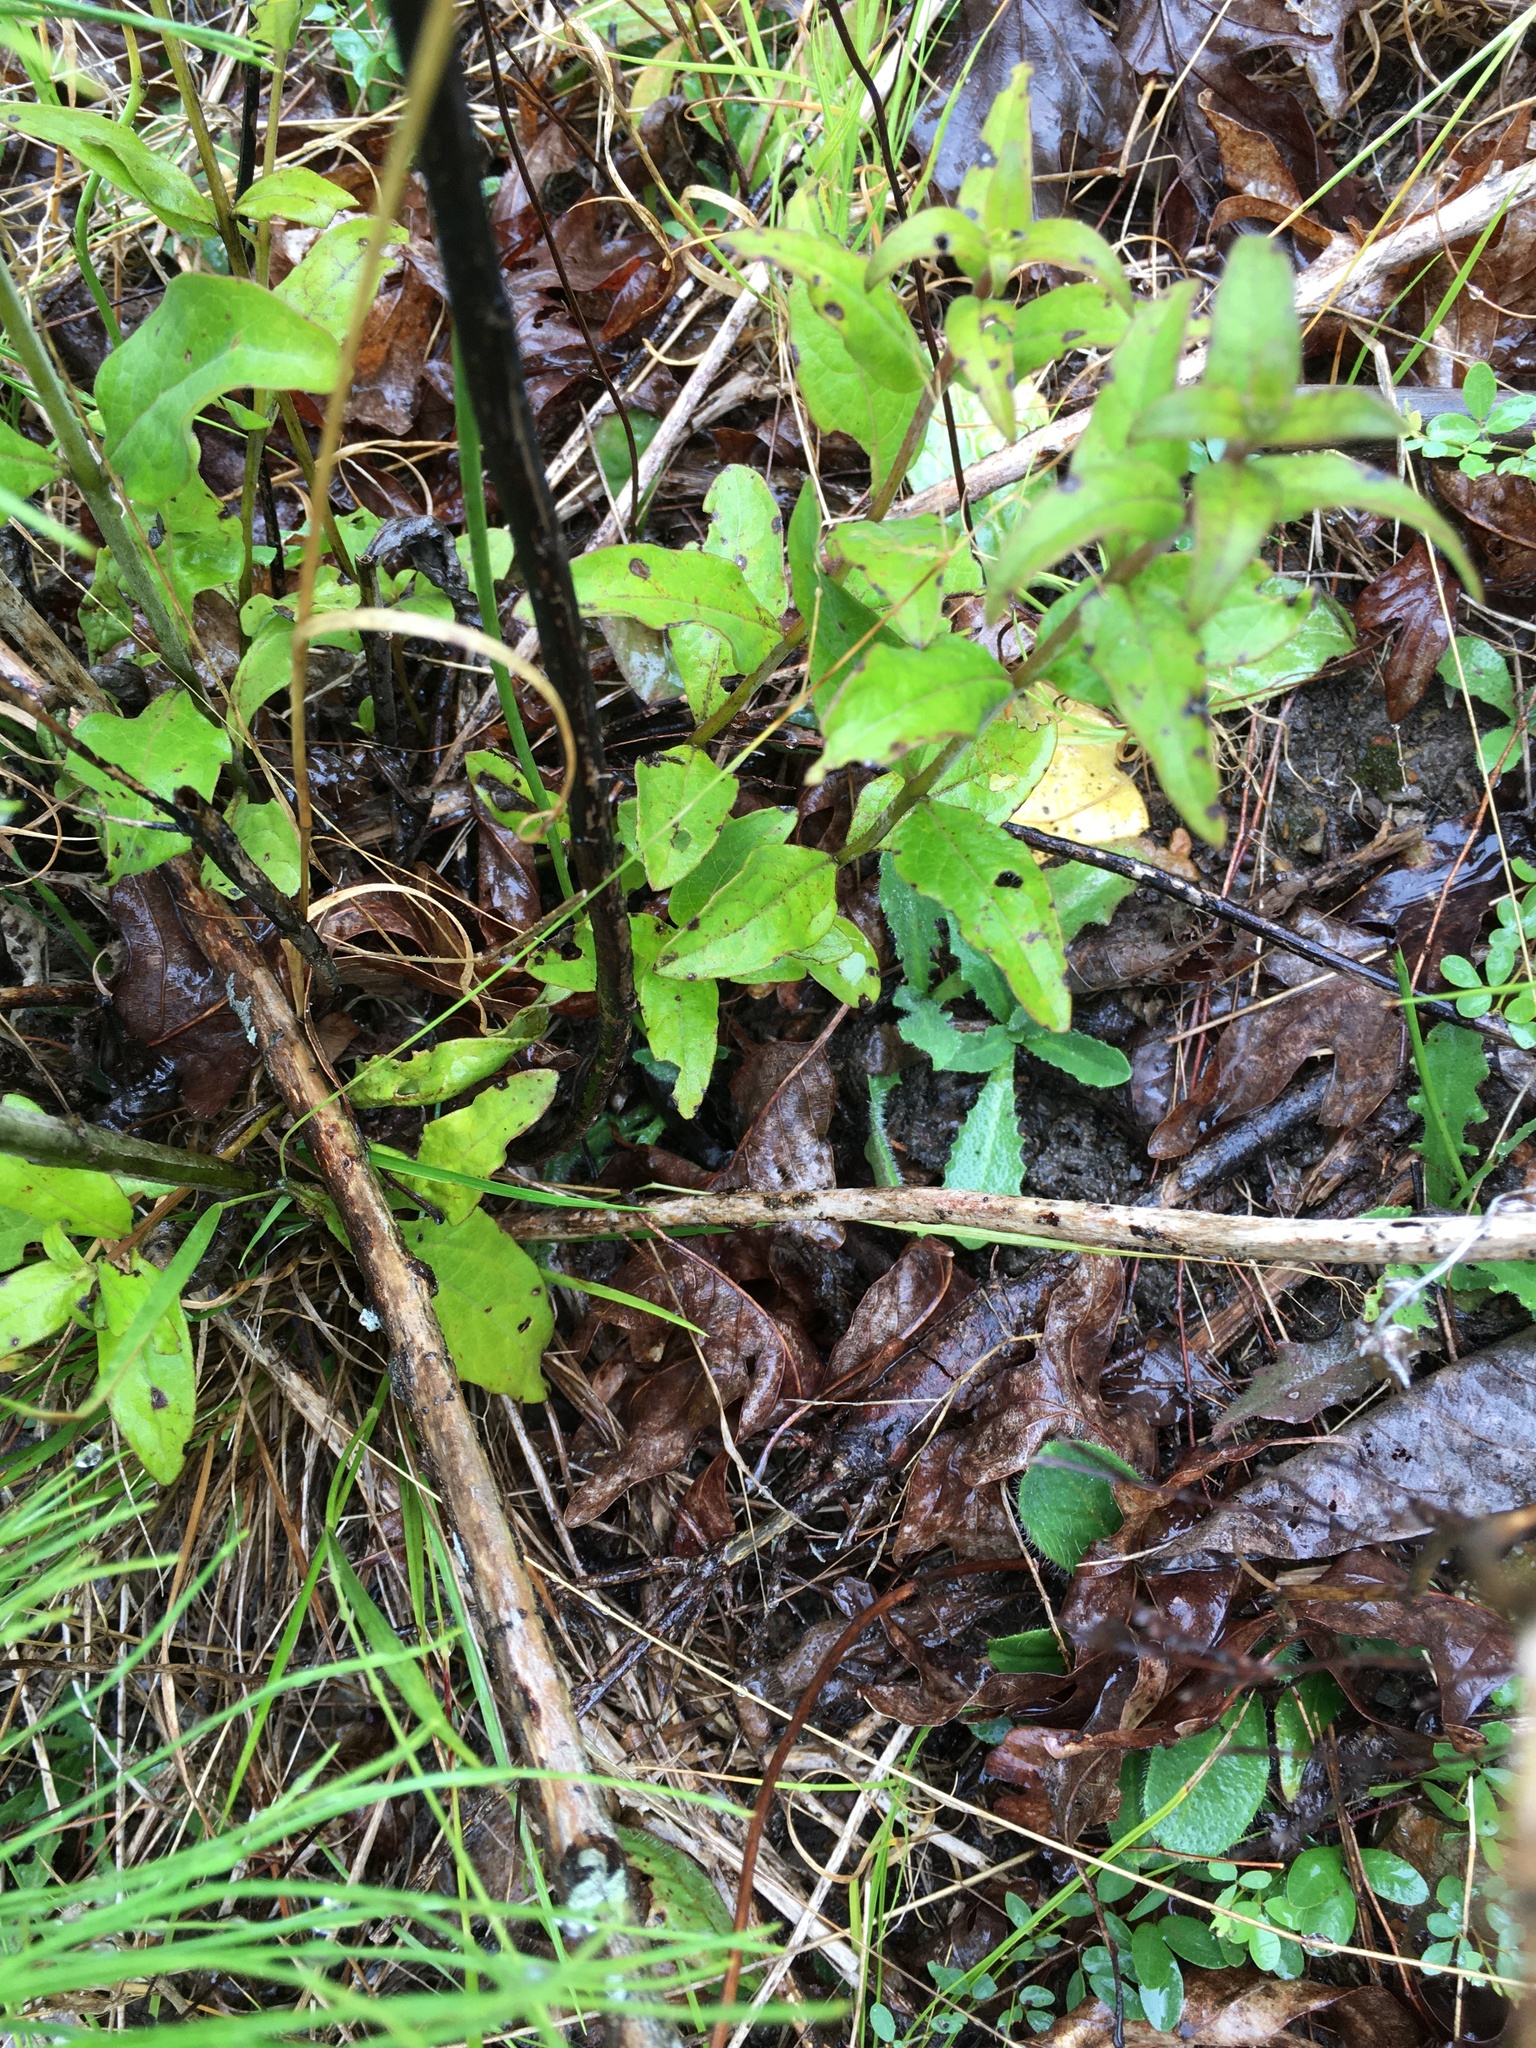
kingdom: Plantae
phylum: Tracheophyta
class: Magnoliopsida
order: Lamiales
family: Orobanchaceae
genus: Aureolaria
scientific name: Aureolaria virginica
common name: Downy false foxglove
